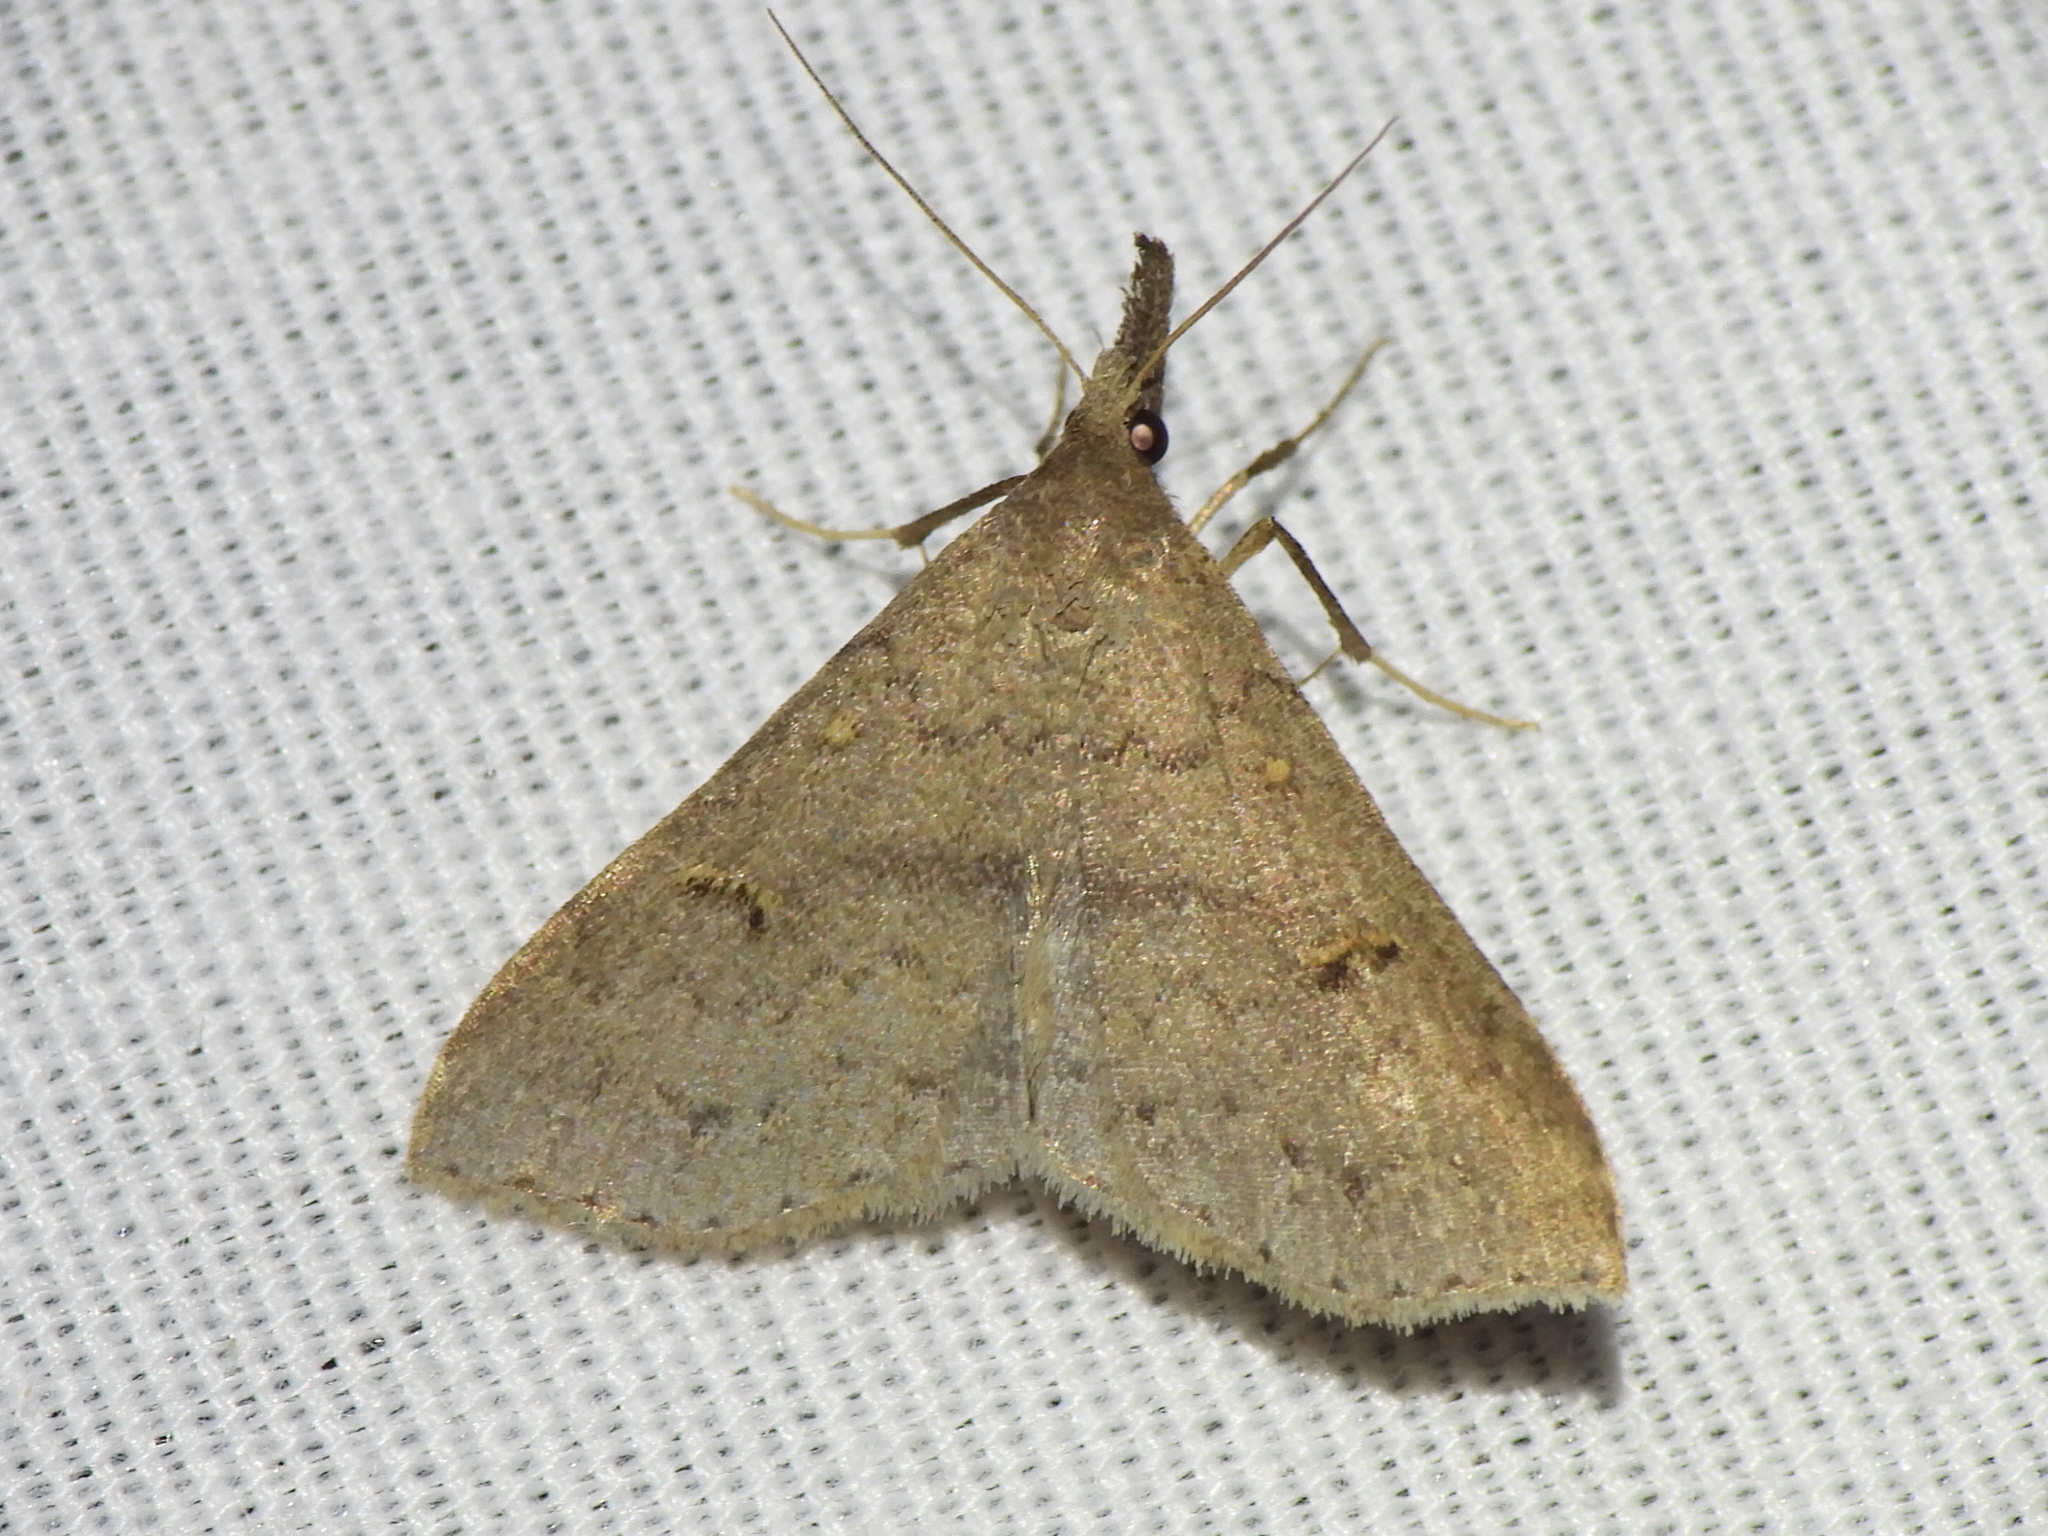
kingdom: Animalia
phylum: Arthropoda
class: Insecta
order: Lepidoptera
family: Erebidae
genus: Renia
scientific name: Renia adspergillus
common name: Speckled renia moth
